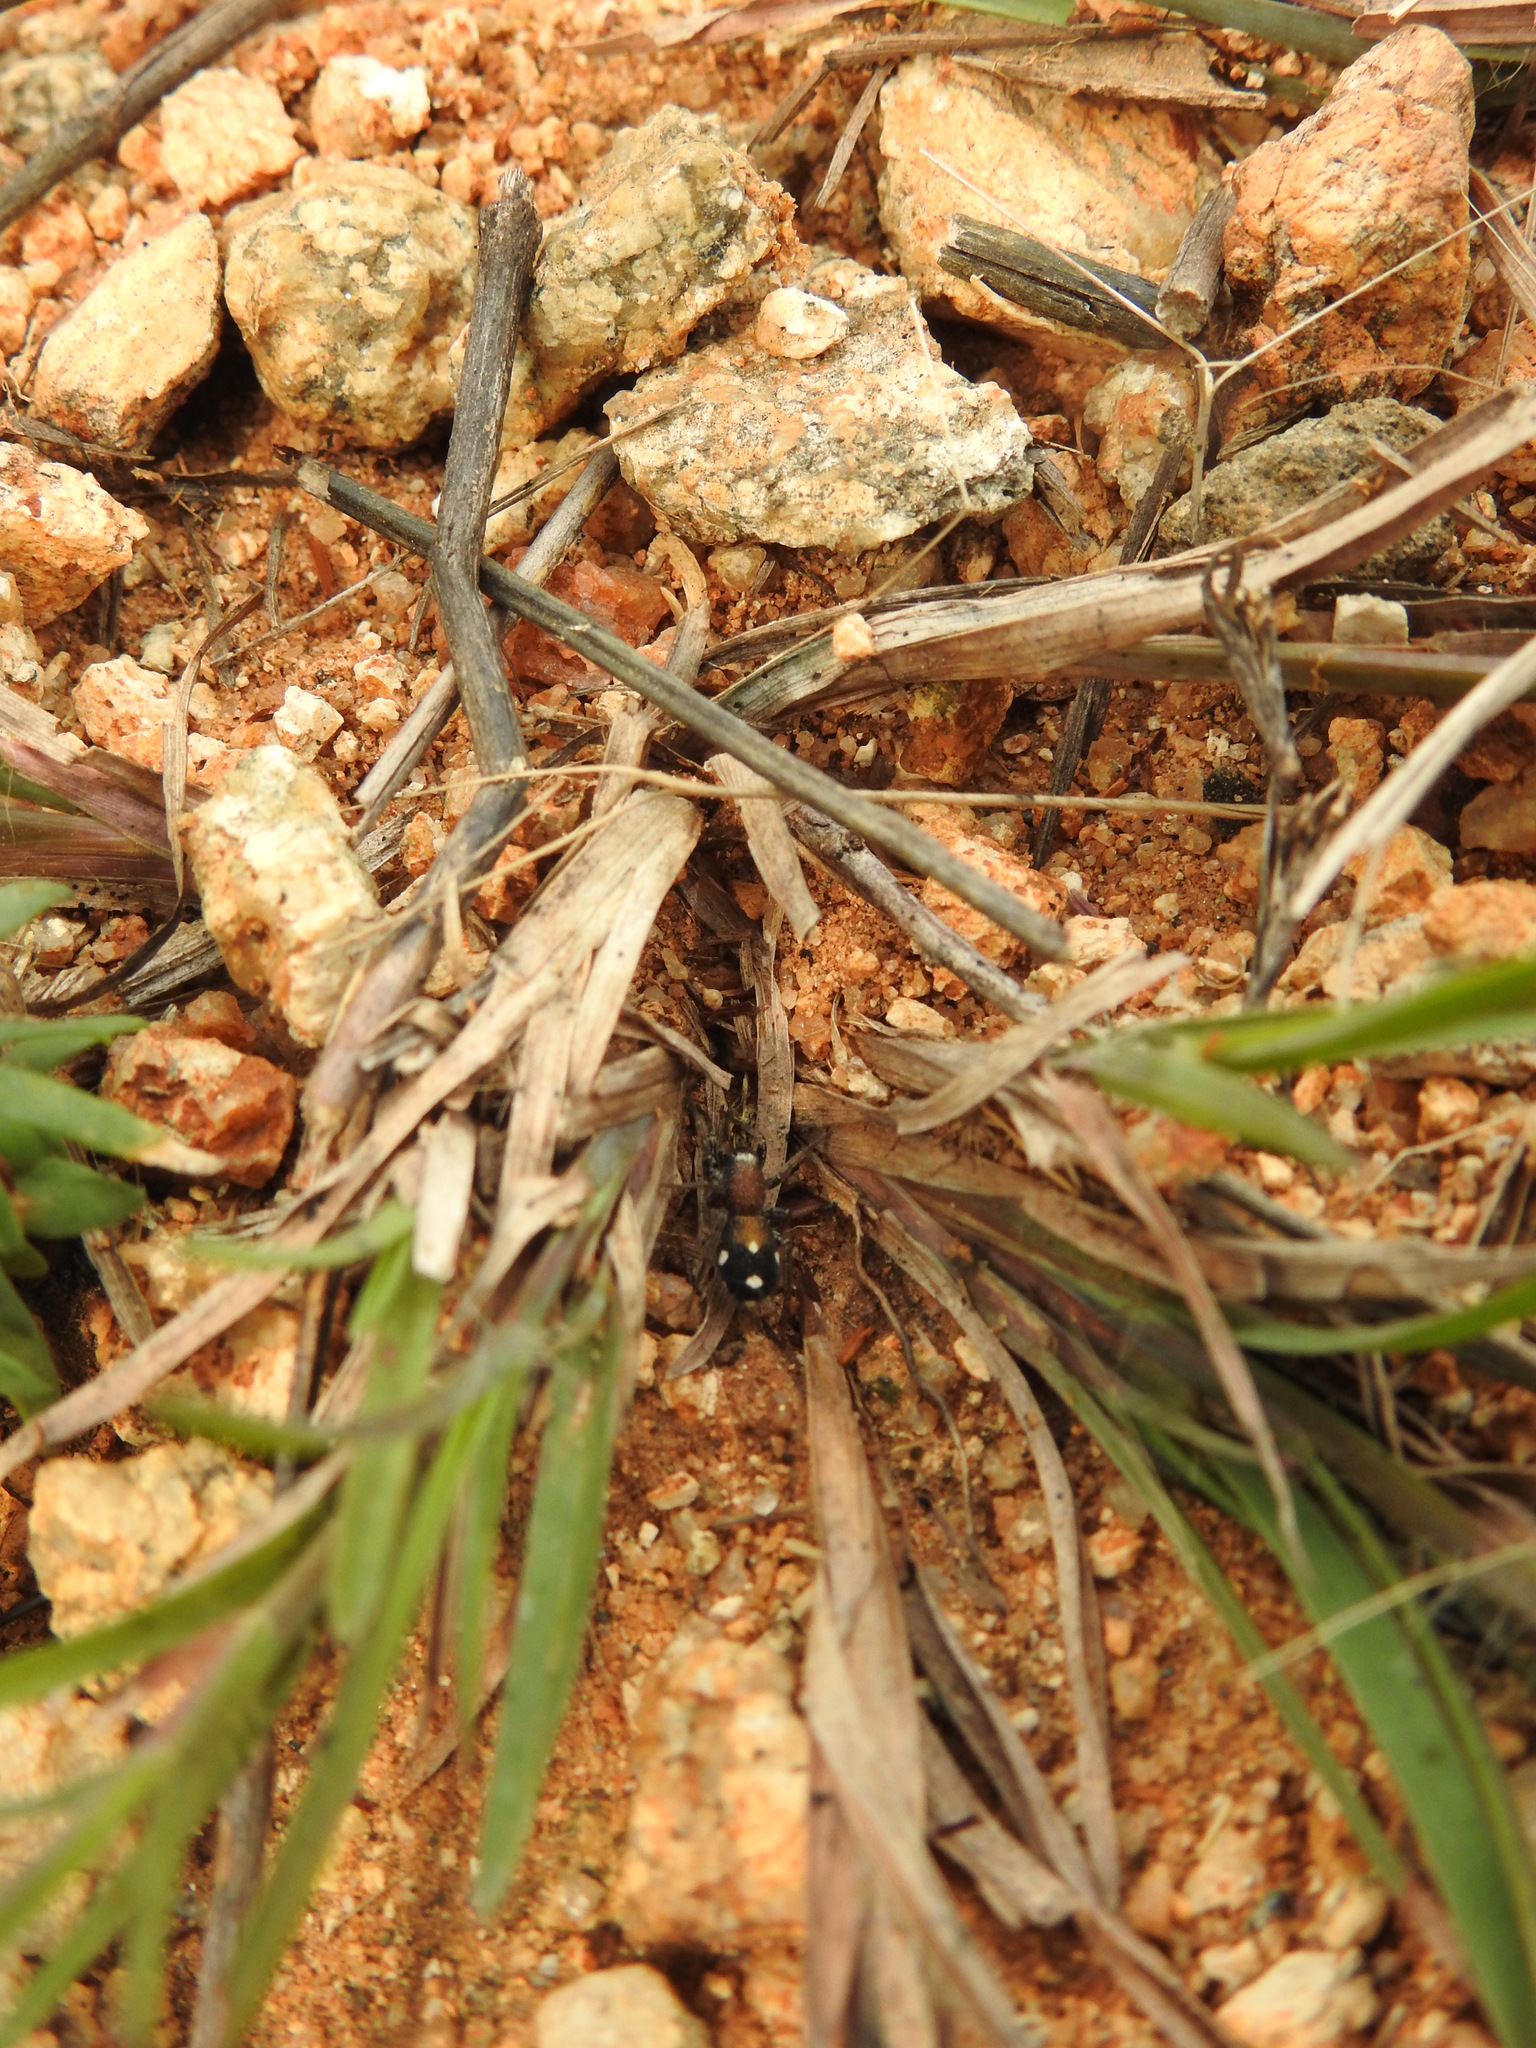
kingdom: Animalia
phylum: Arthropoda
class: Arachnida
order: Araneae
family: Corinnidae
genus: Coenoptychus
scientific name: Coenoptychus pulcher
